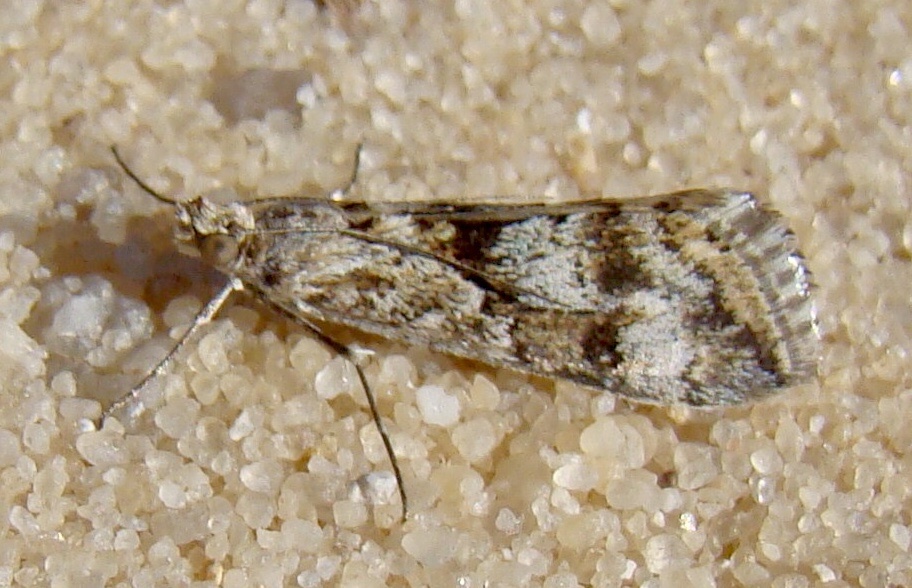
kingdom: Animalia
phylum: Arthropoda
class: Insecta
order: Lepidoptera
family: Crambidae
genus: Cornifrons
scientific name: Cornifrons ulceratalis
